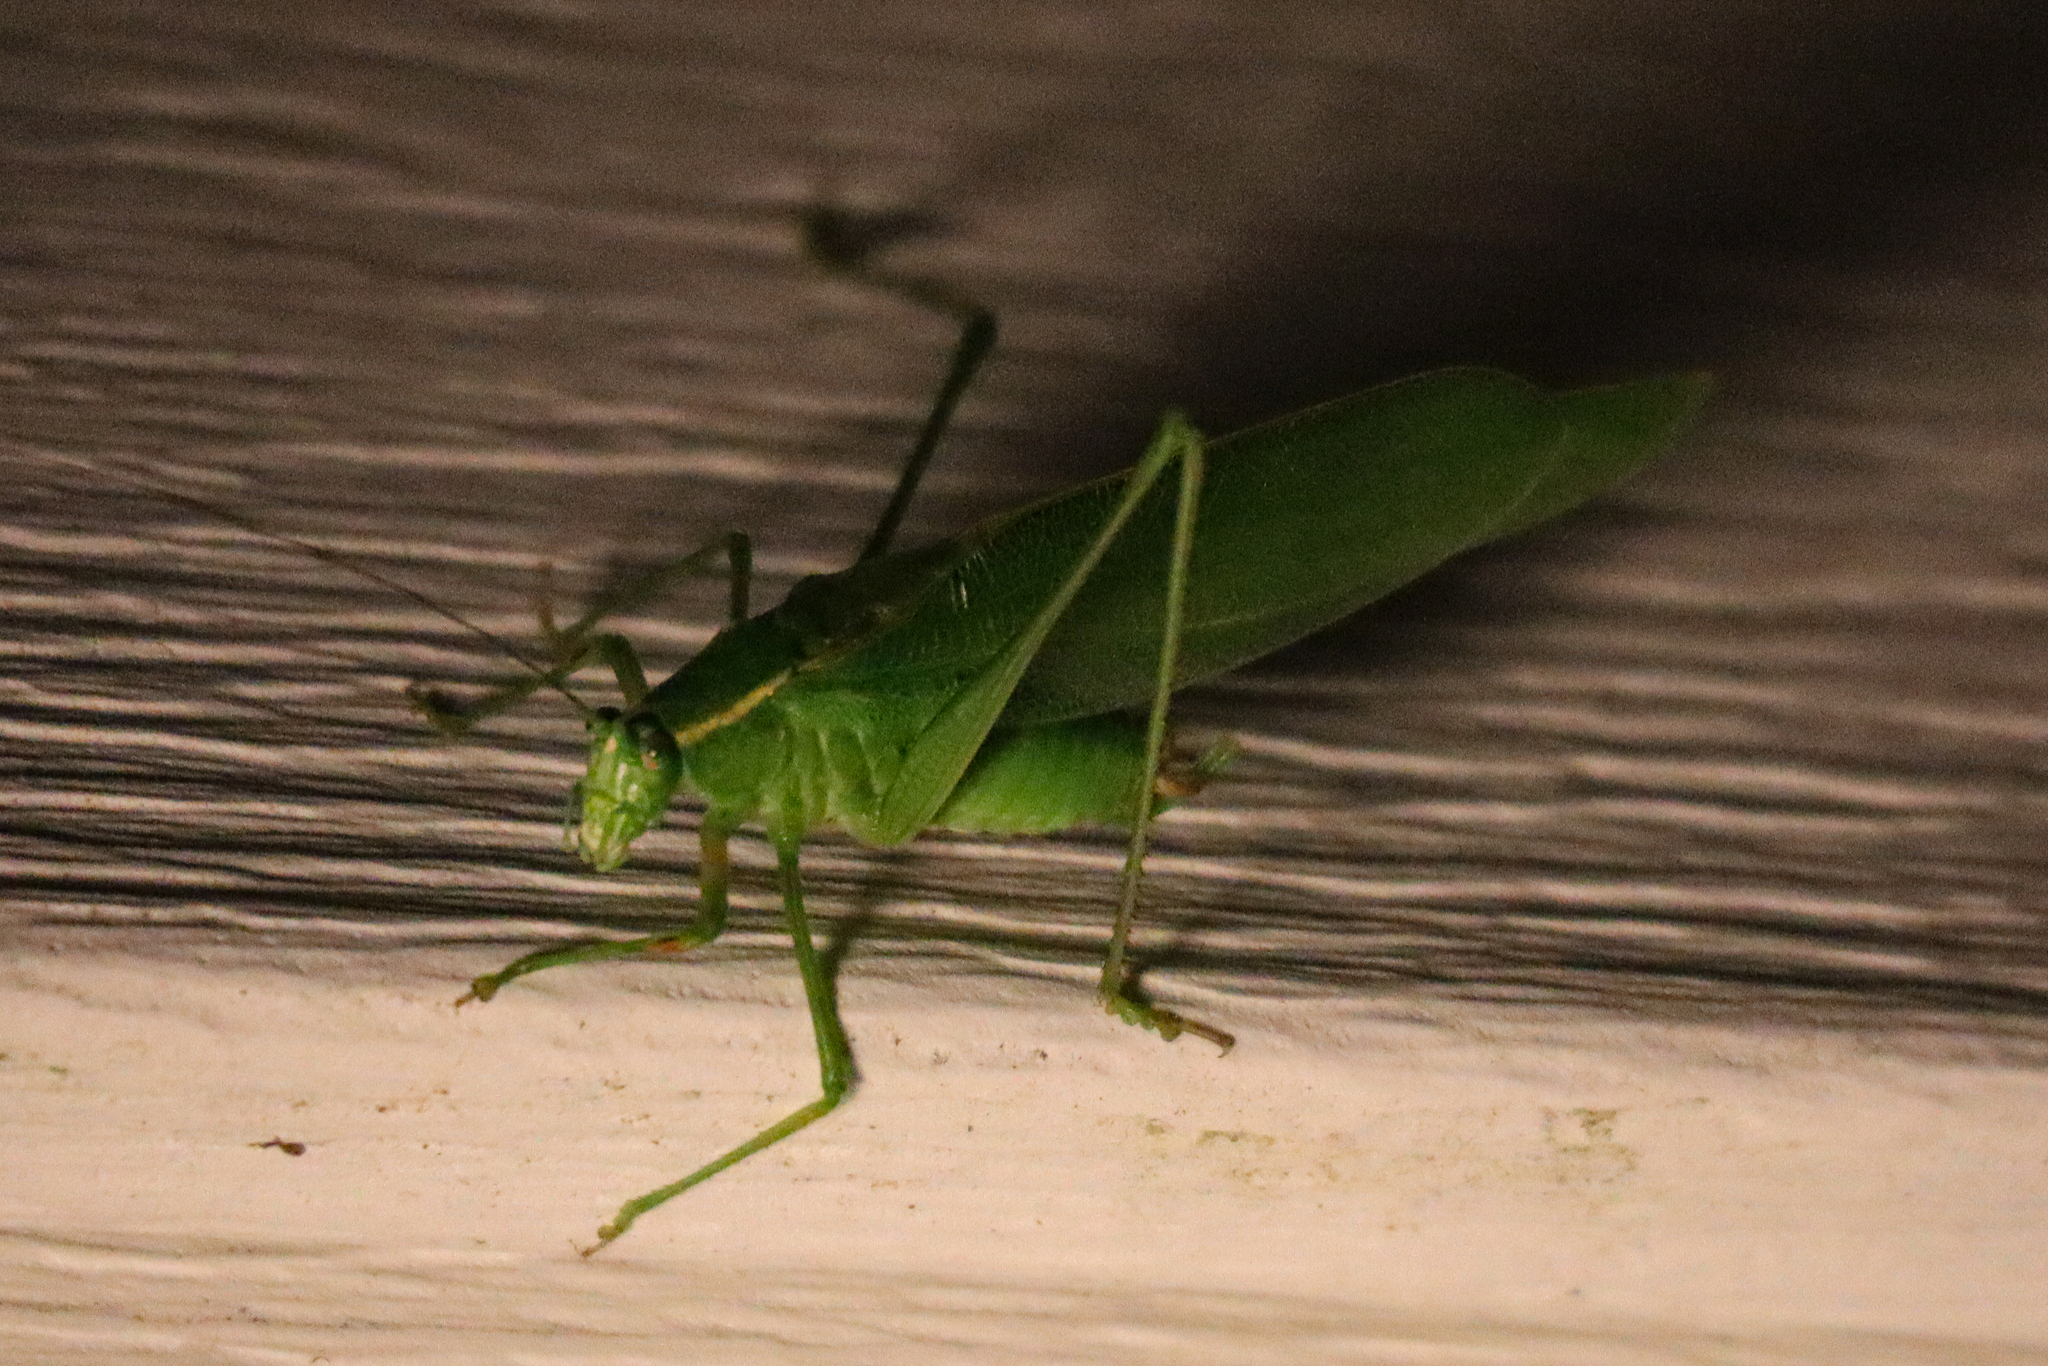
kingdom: Animalia
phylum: Arthropoda
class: Insecta
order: Orthoptera
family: Tettigoniidae
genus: Scudderia
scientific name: Scudderia septentrionalis
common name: Northern bush-katydid
